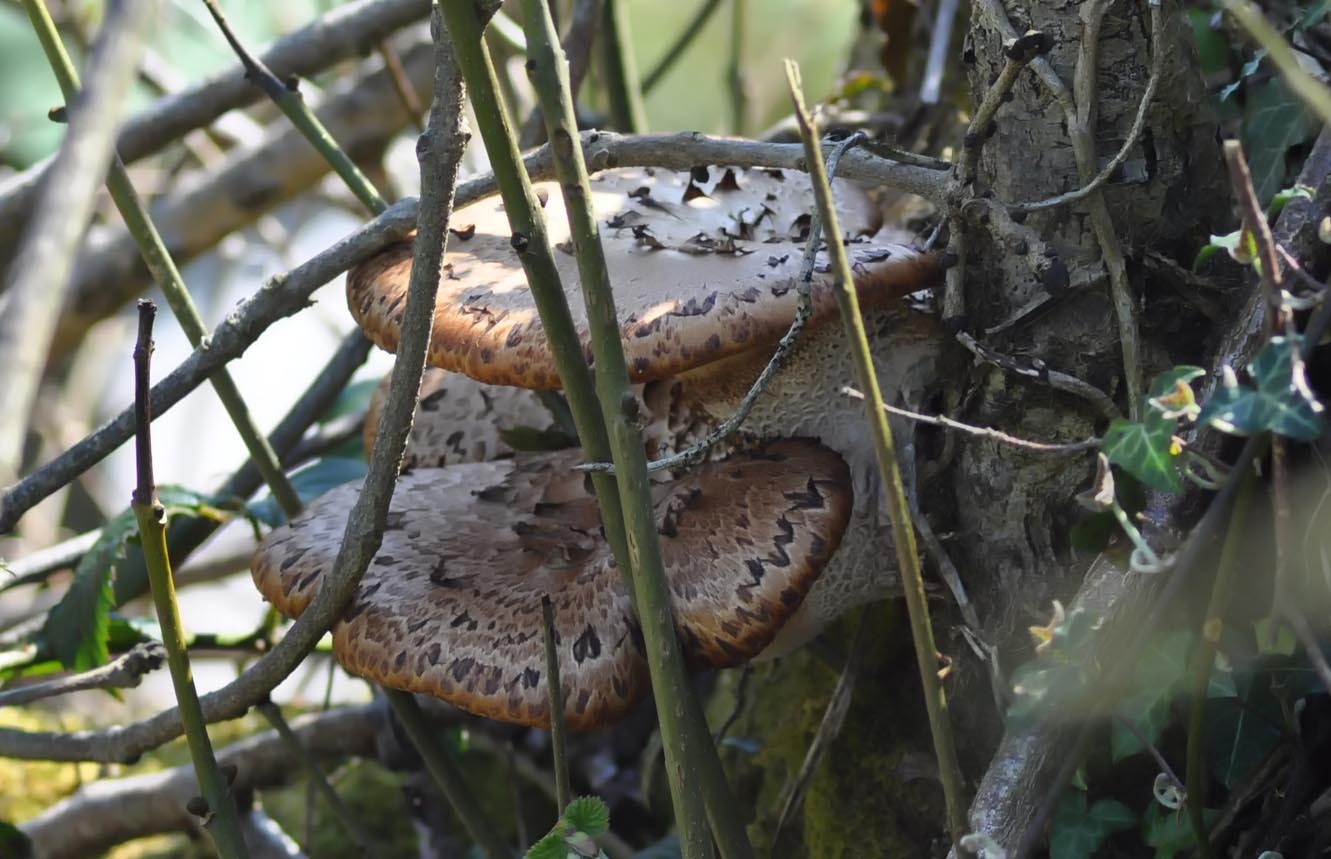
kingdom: Fungi
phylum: Basidiomycota
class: Agaricomycetes
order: Polyporales
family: Polyporaceae
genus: Cerioporus
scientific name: Cerioporus squamosus
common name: Dryad's saddle
